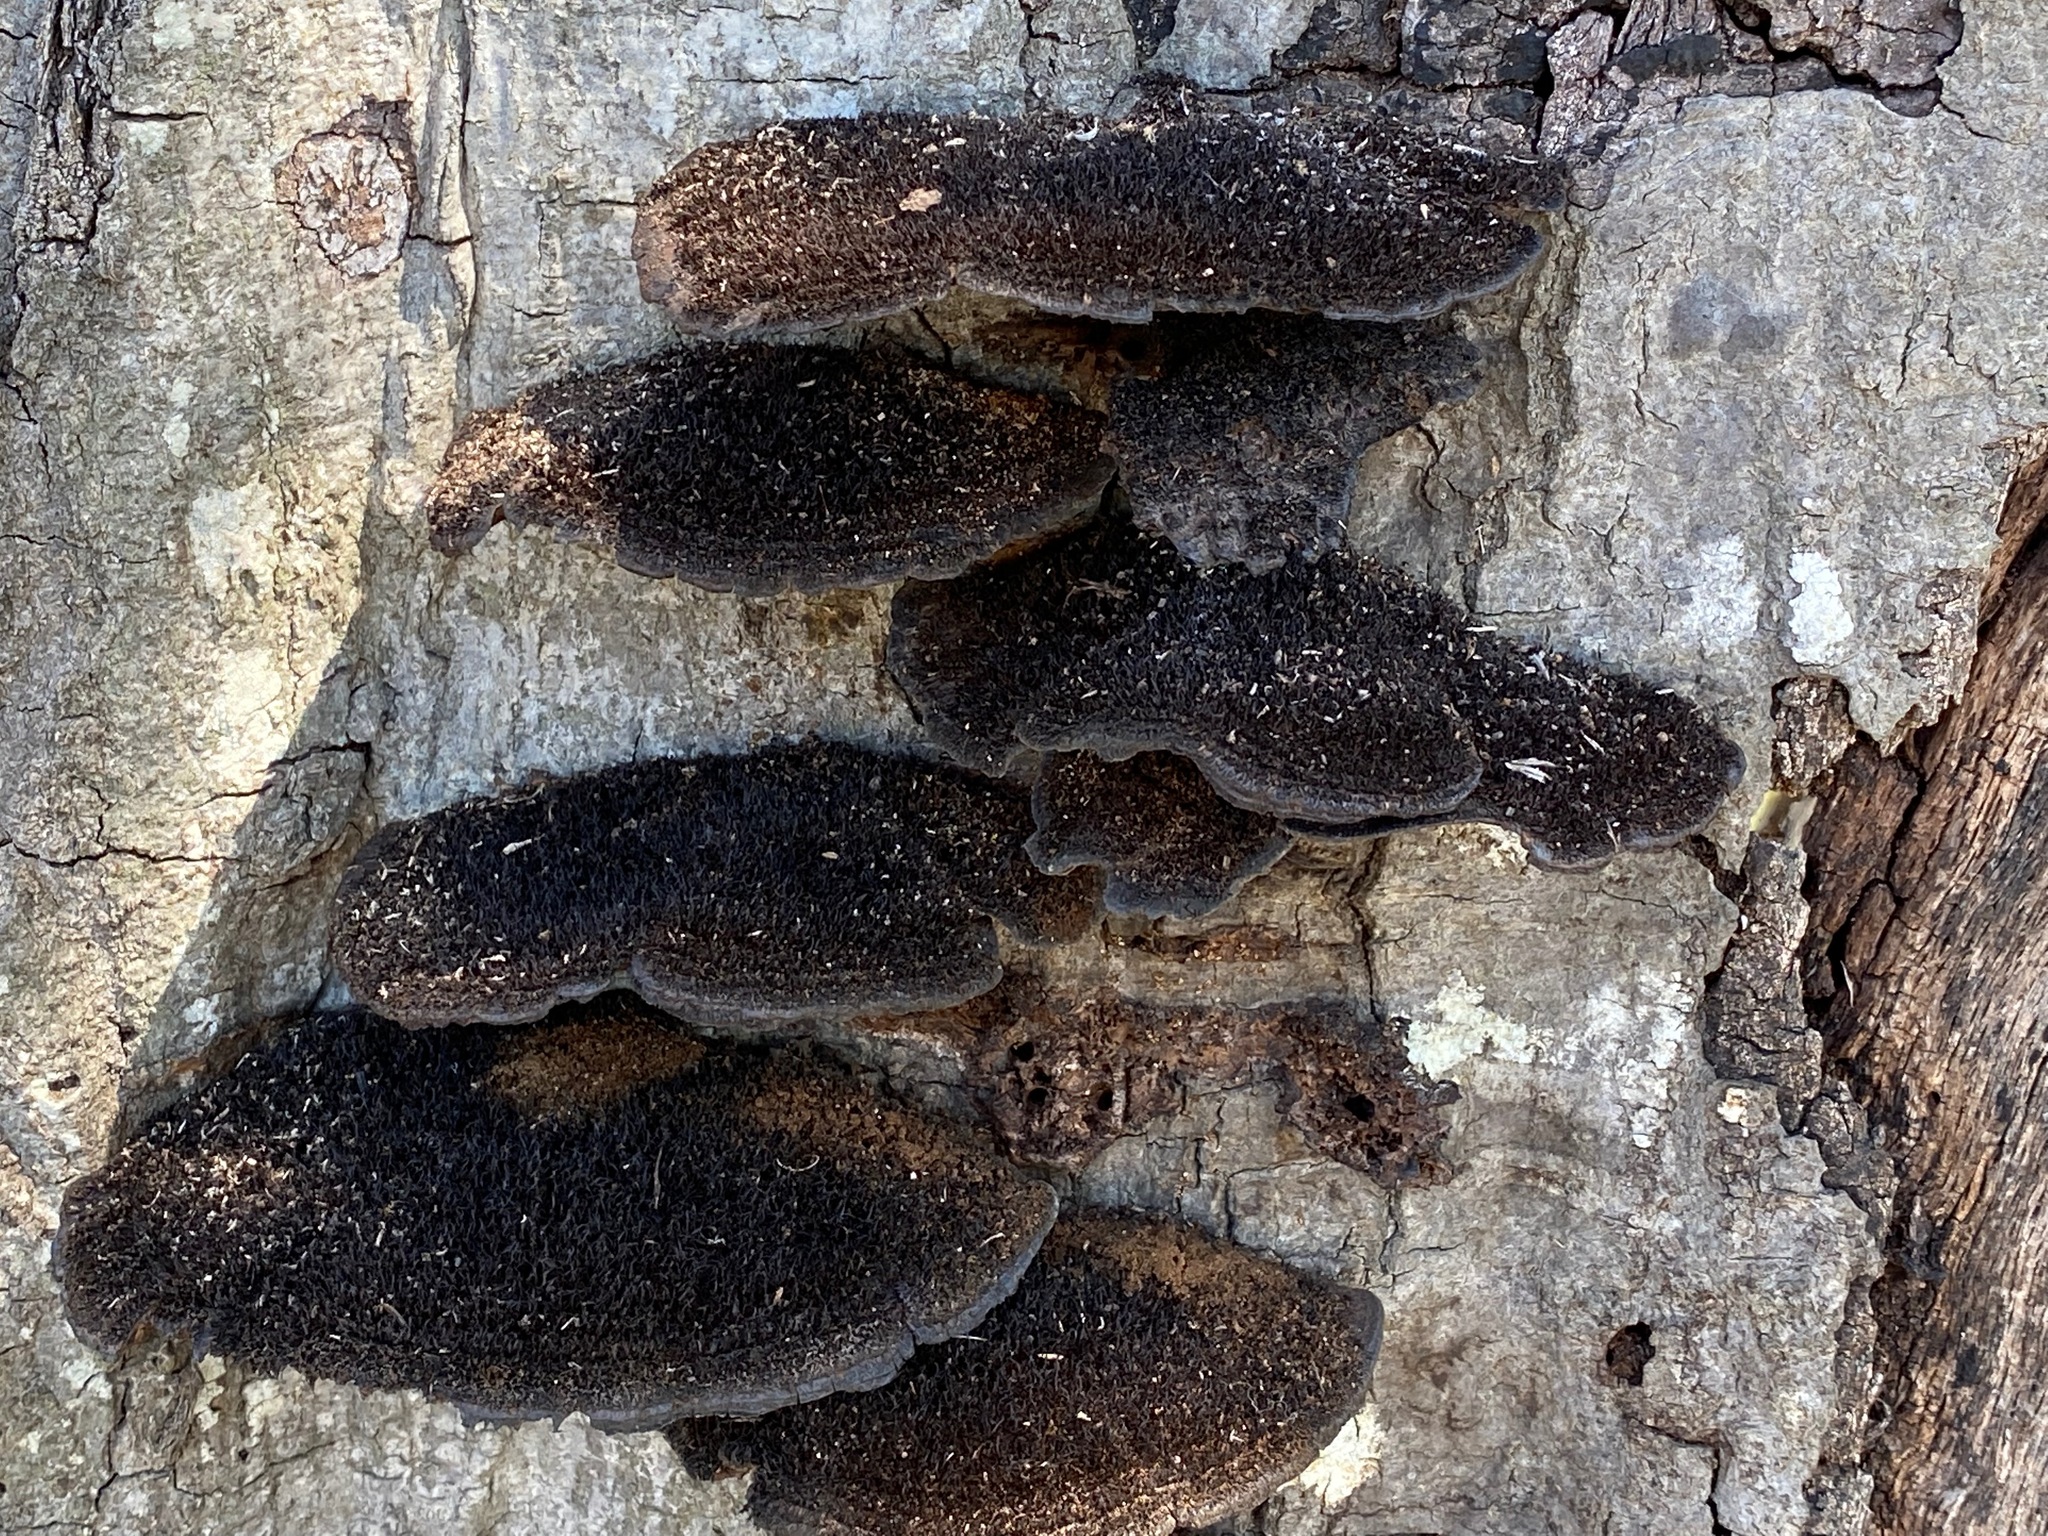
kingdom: Fungi
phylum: Basidiomycota
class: Agaricomycetes
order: Polyporales
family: Cerrenaceae
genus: Cerrena
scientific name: Cerrena hydnoides
